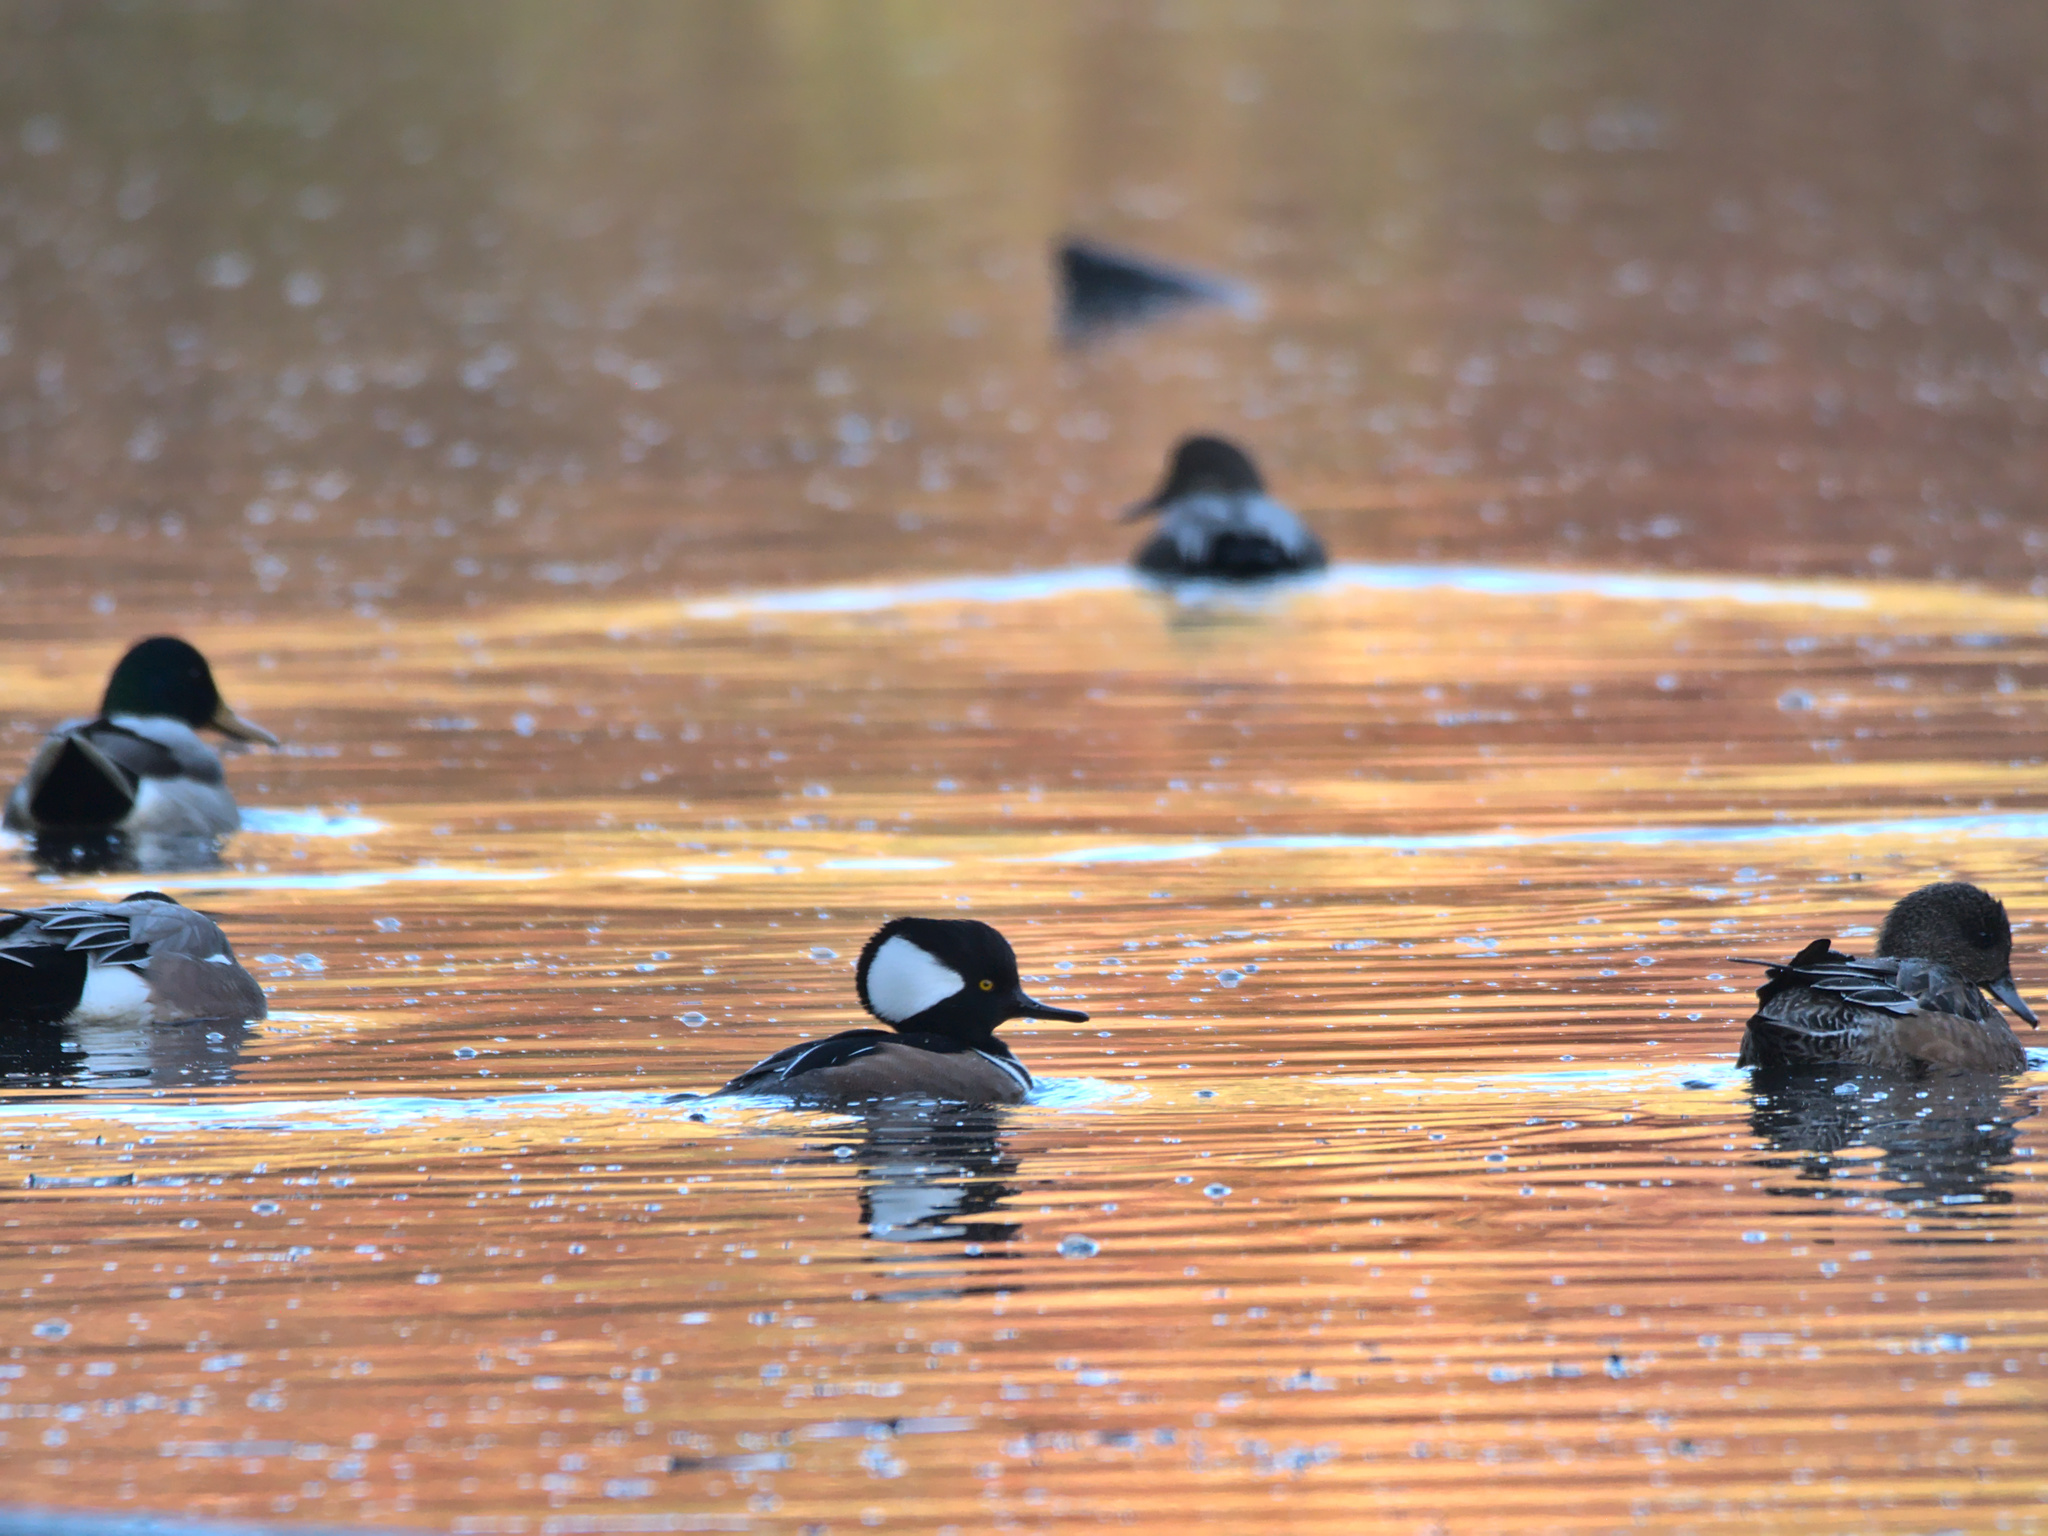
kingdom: Animalia
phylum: Chordata
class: Aves
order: Anseriformes
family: Anatidae
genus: Lophodytes
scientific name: Lophodytes cucullatus
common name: Hooded merganser
